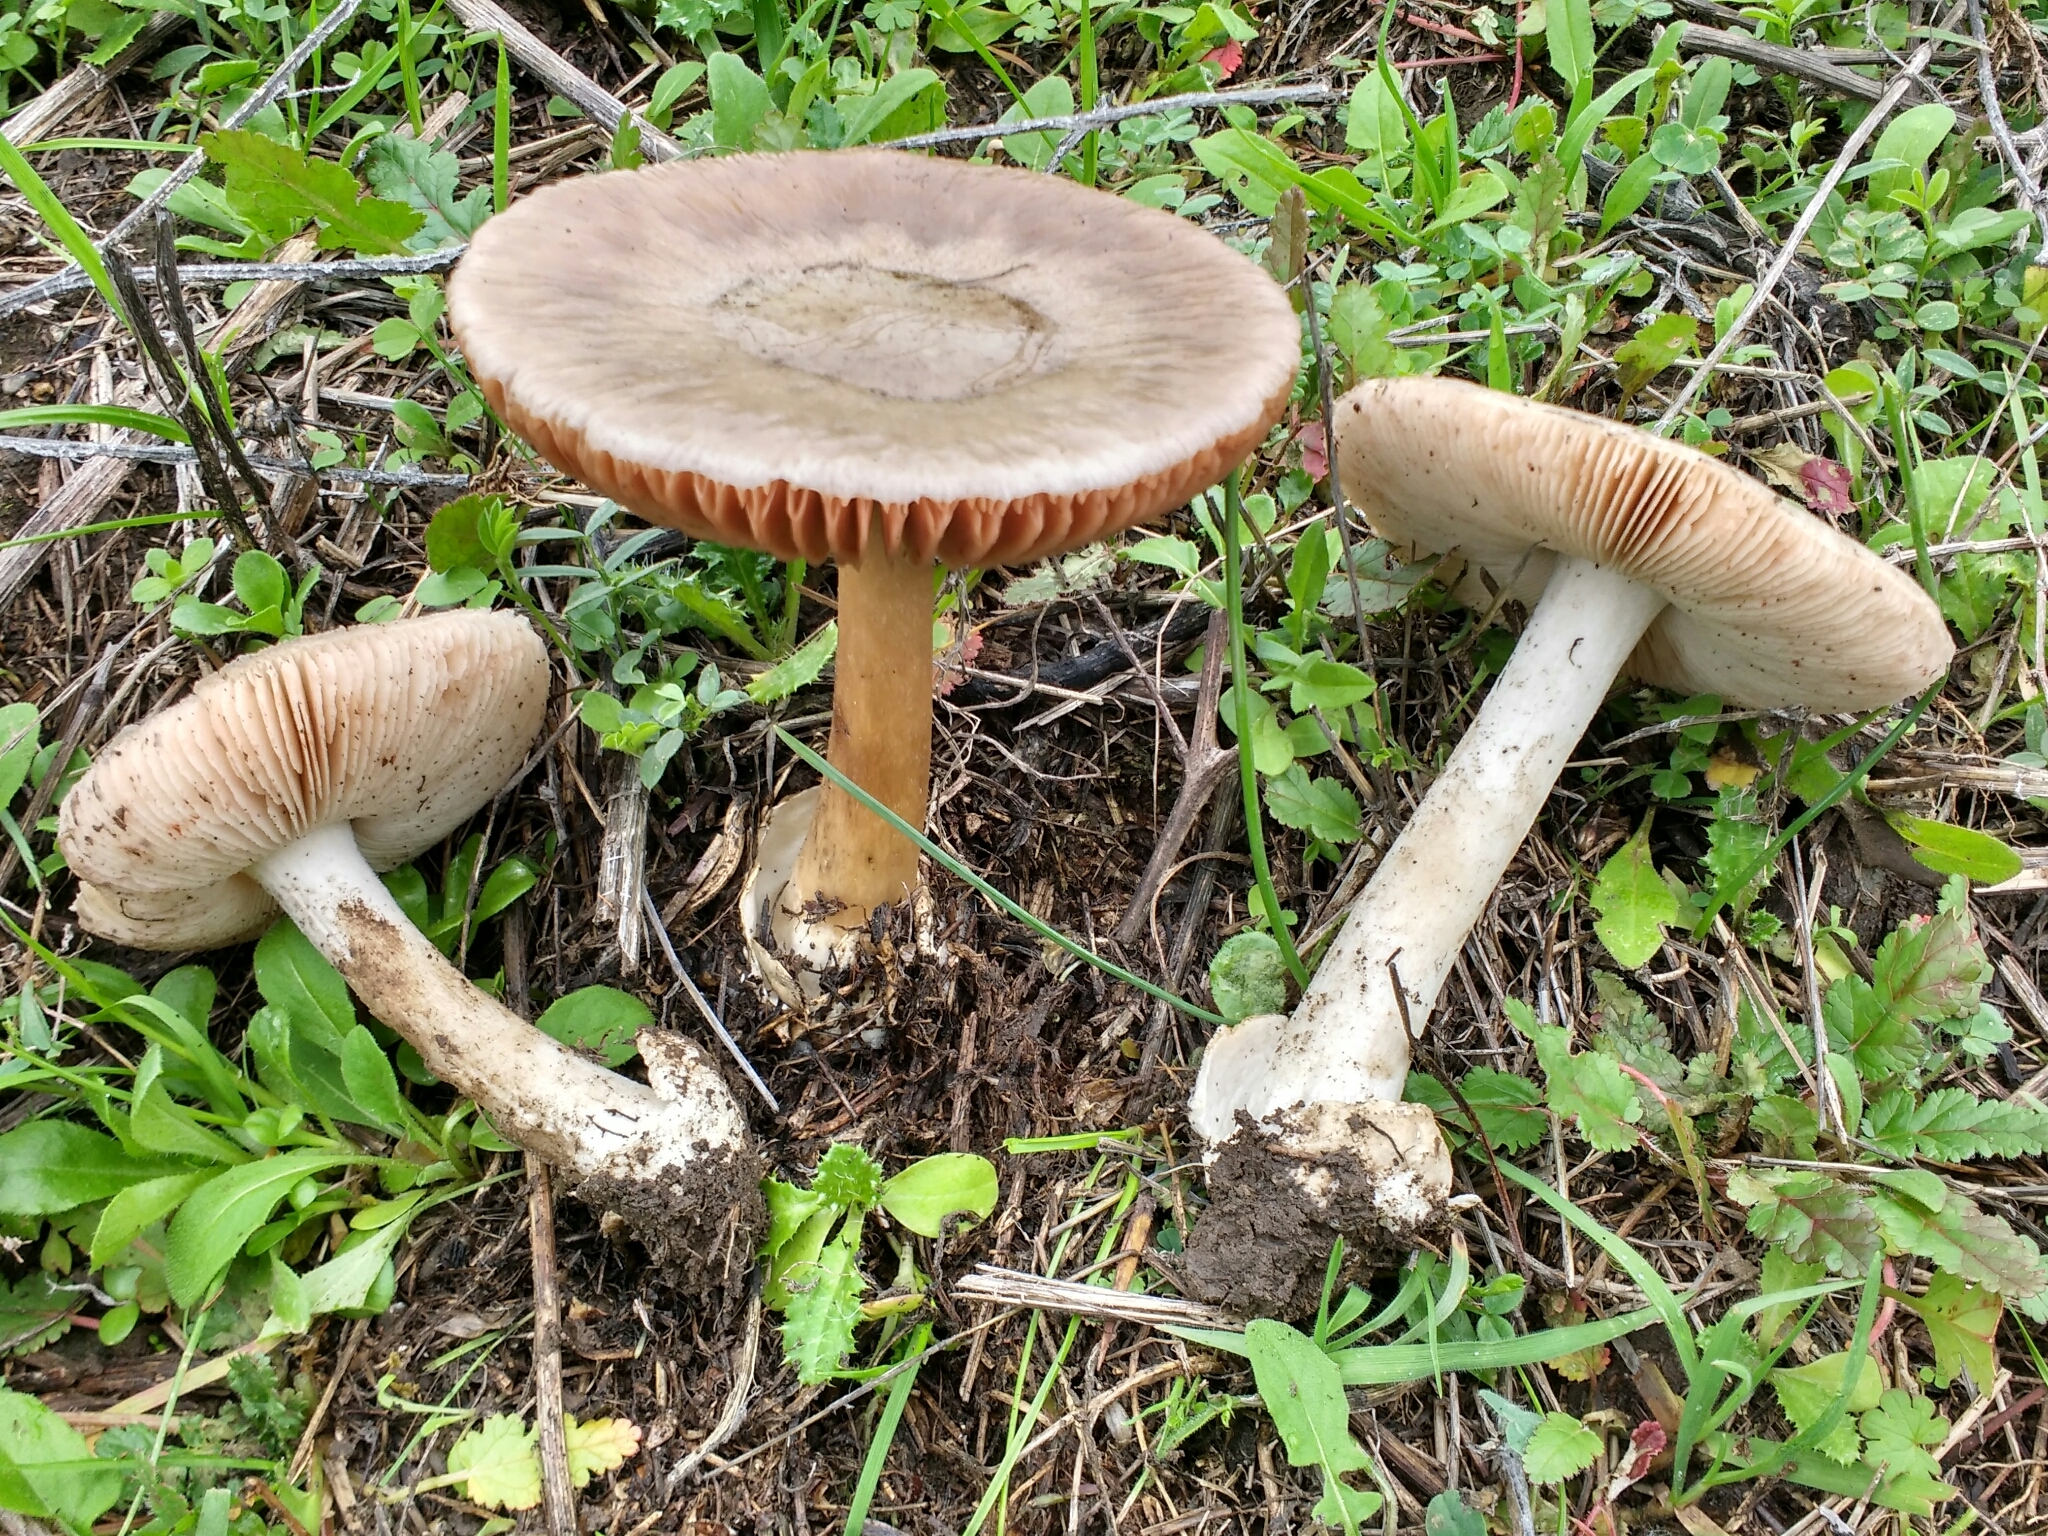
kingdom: Fungi
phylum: Basidiomycota
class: Agaricomycetes
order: Agaricales
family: Pluteaceae
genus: Volvopluteus
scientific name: Volvopluteus gloiocephalus
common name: Stubble rosegill
